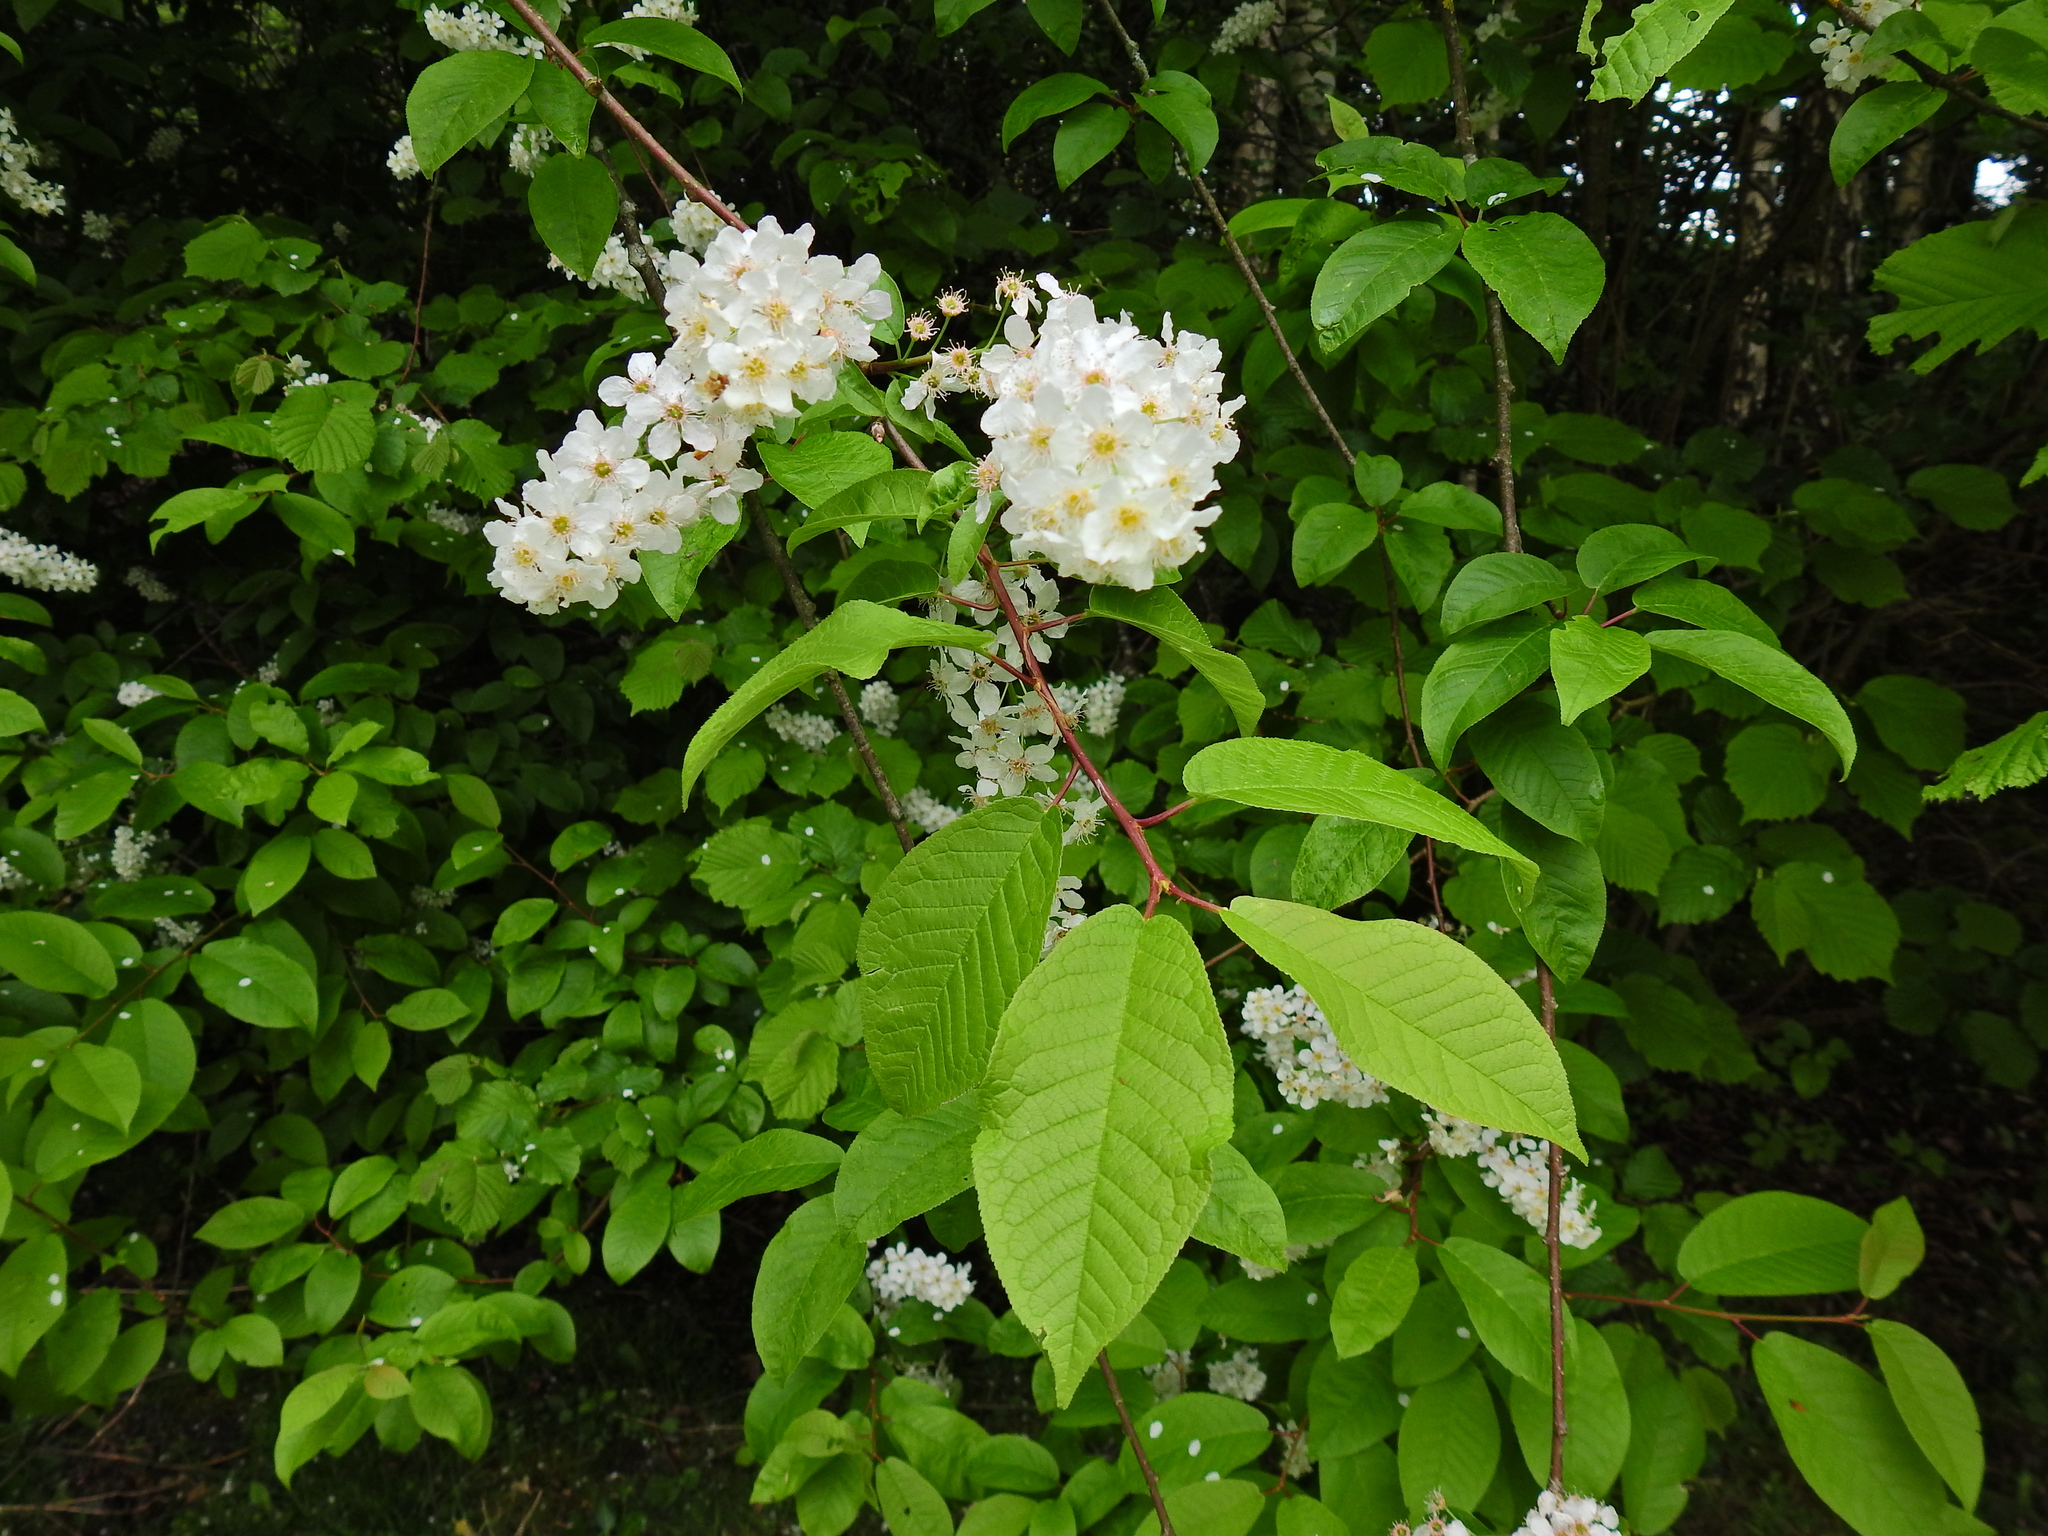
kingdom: Plantae
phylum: Tracheophyta
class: Magnoliopsida
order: Rosales
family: Rosaceae
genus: Prunus
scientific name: Prunus padus
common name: Bird cherry
